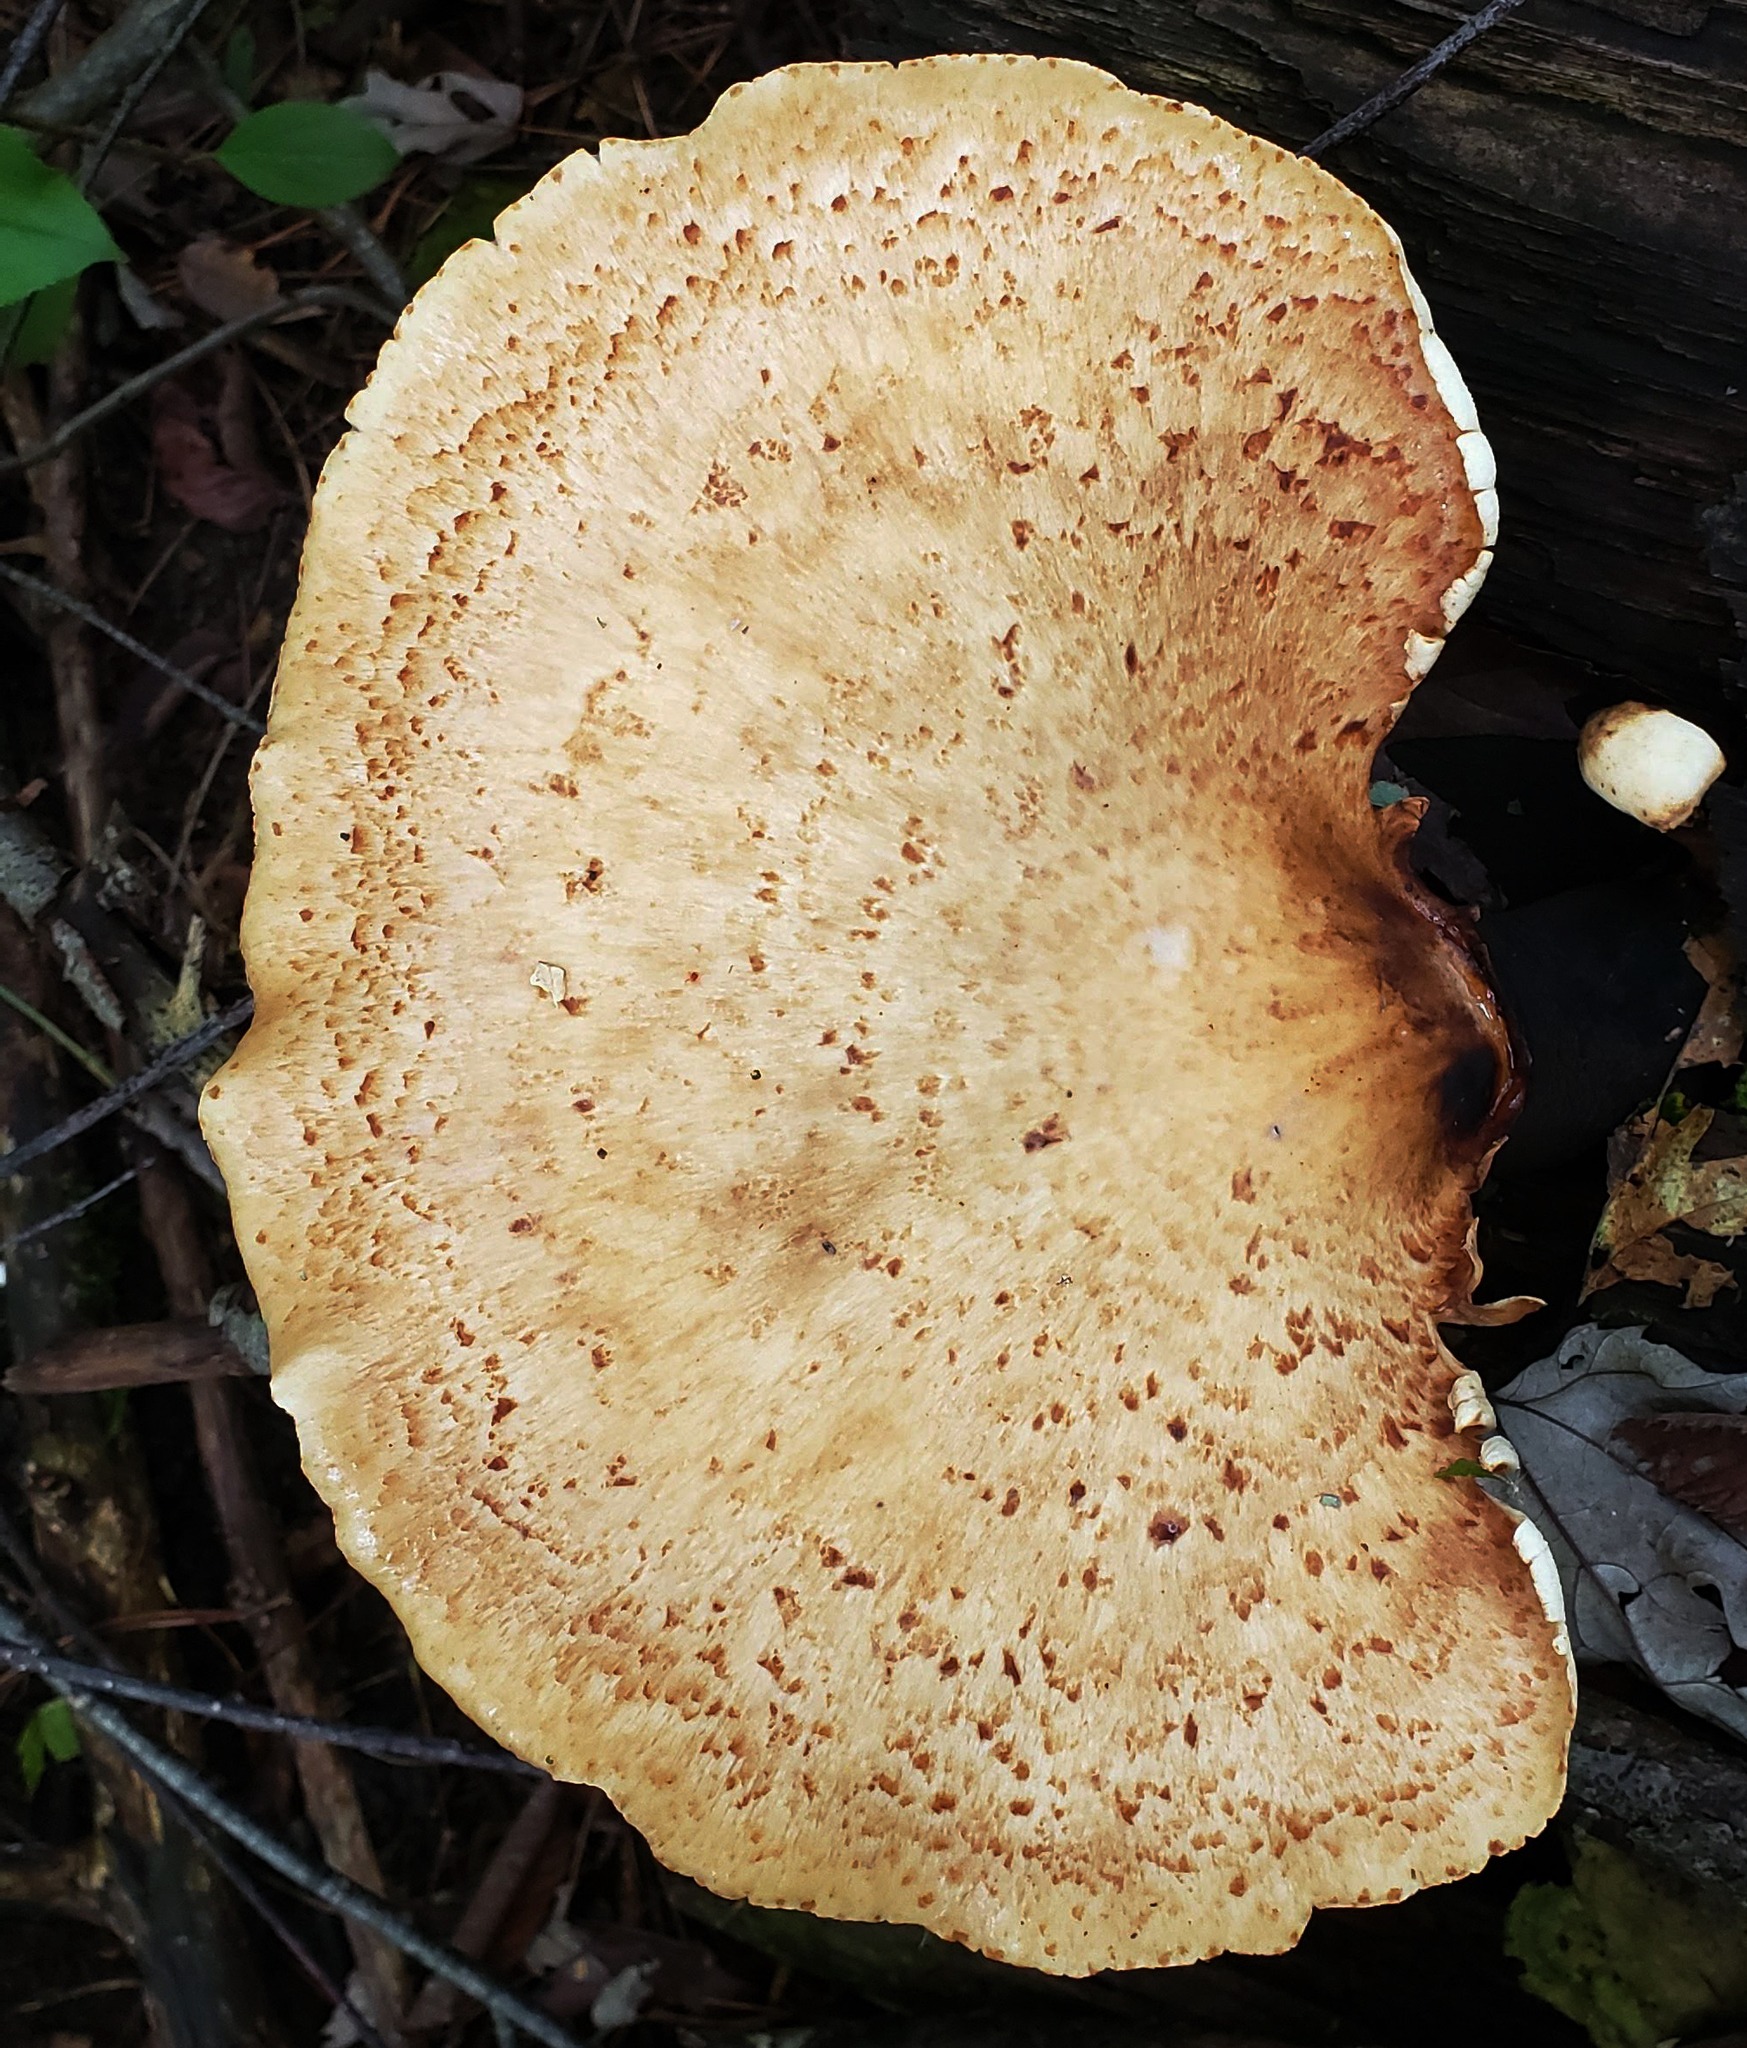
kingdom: Fungi
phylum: Basidiomycota
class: Agaricomycetes
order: Polyporales
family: Polyporaceae
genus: Cerioporus
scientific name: Cerioporus squamosus
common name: Dryad's saddle
